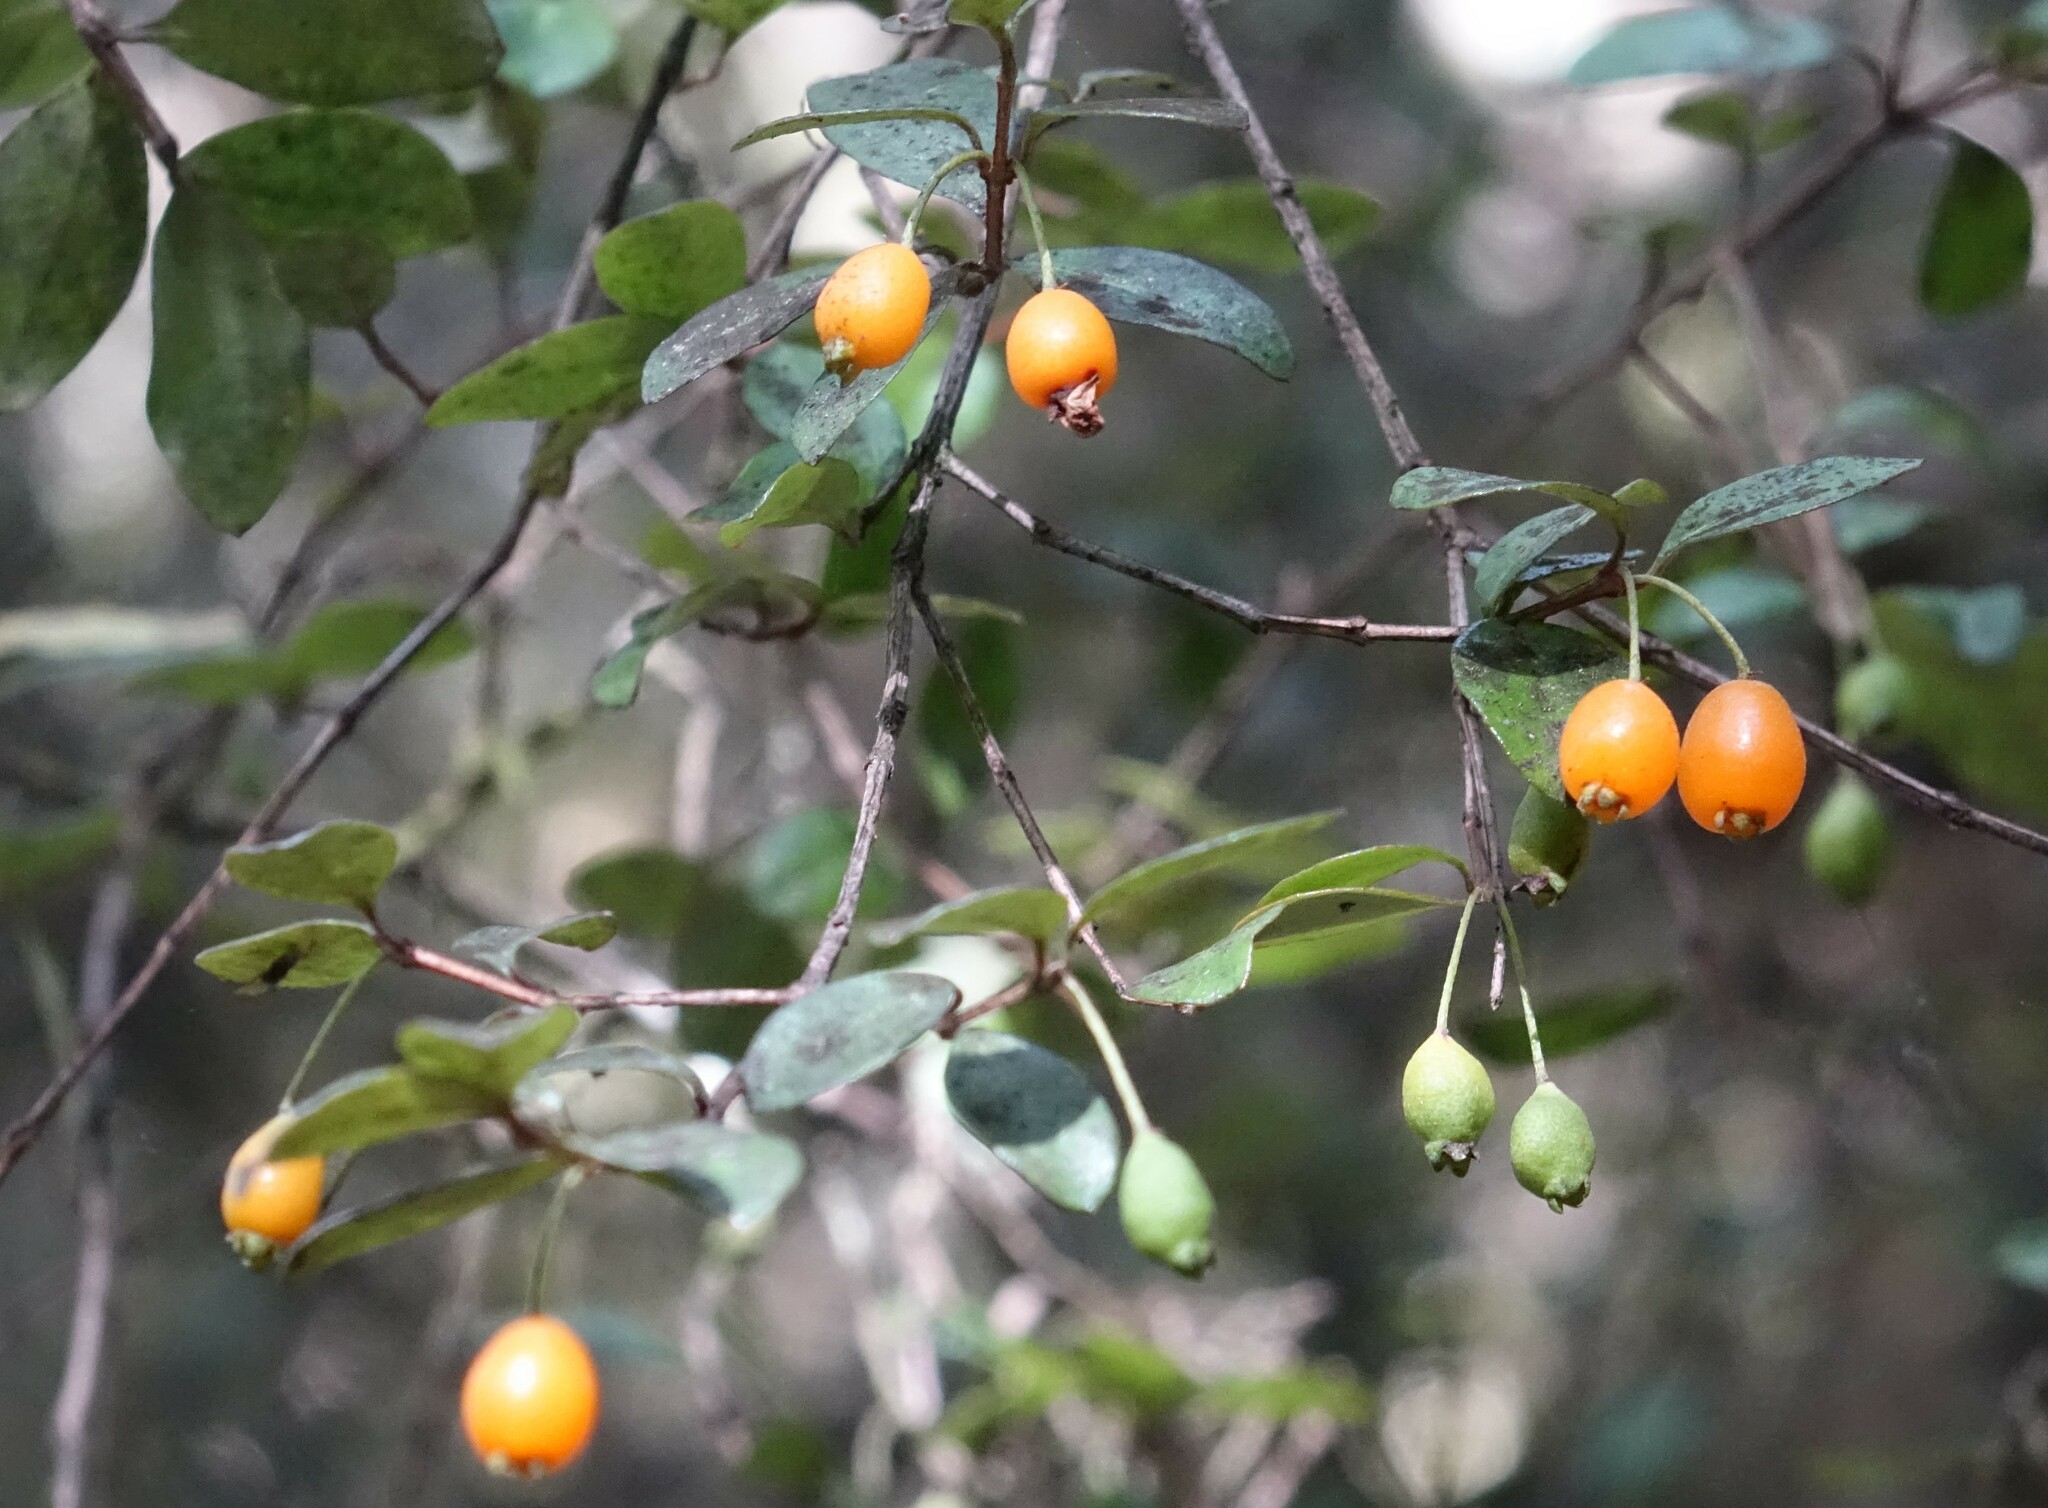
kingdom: Plantae
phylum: Tracheophyta
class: Magnoliopsida
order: Myrtales
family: Myrtaceae
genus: Neomyrtus
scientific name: Neomyrtus pedunculata
